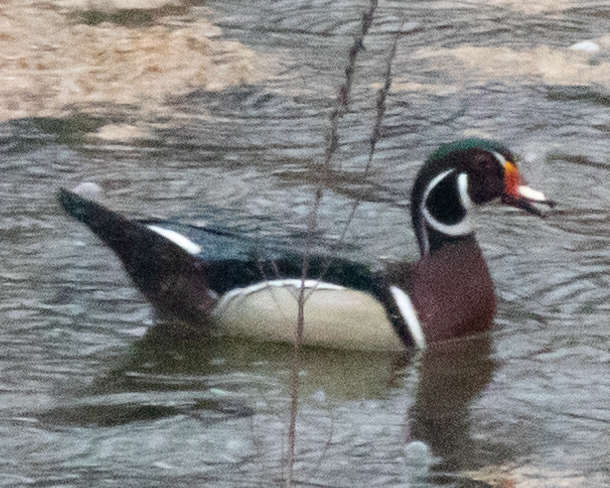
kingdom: Animalia
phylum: Chordata
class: Aves
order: Anseriformes
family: Anatidae
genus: Aix
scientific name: Aix sponsa
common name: Wood duck
